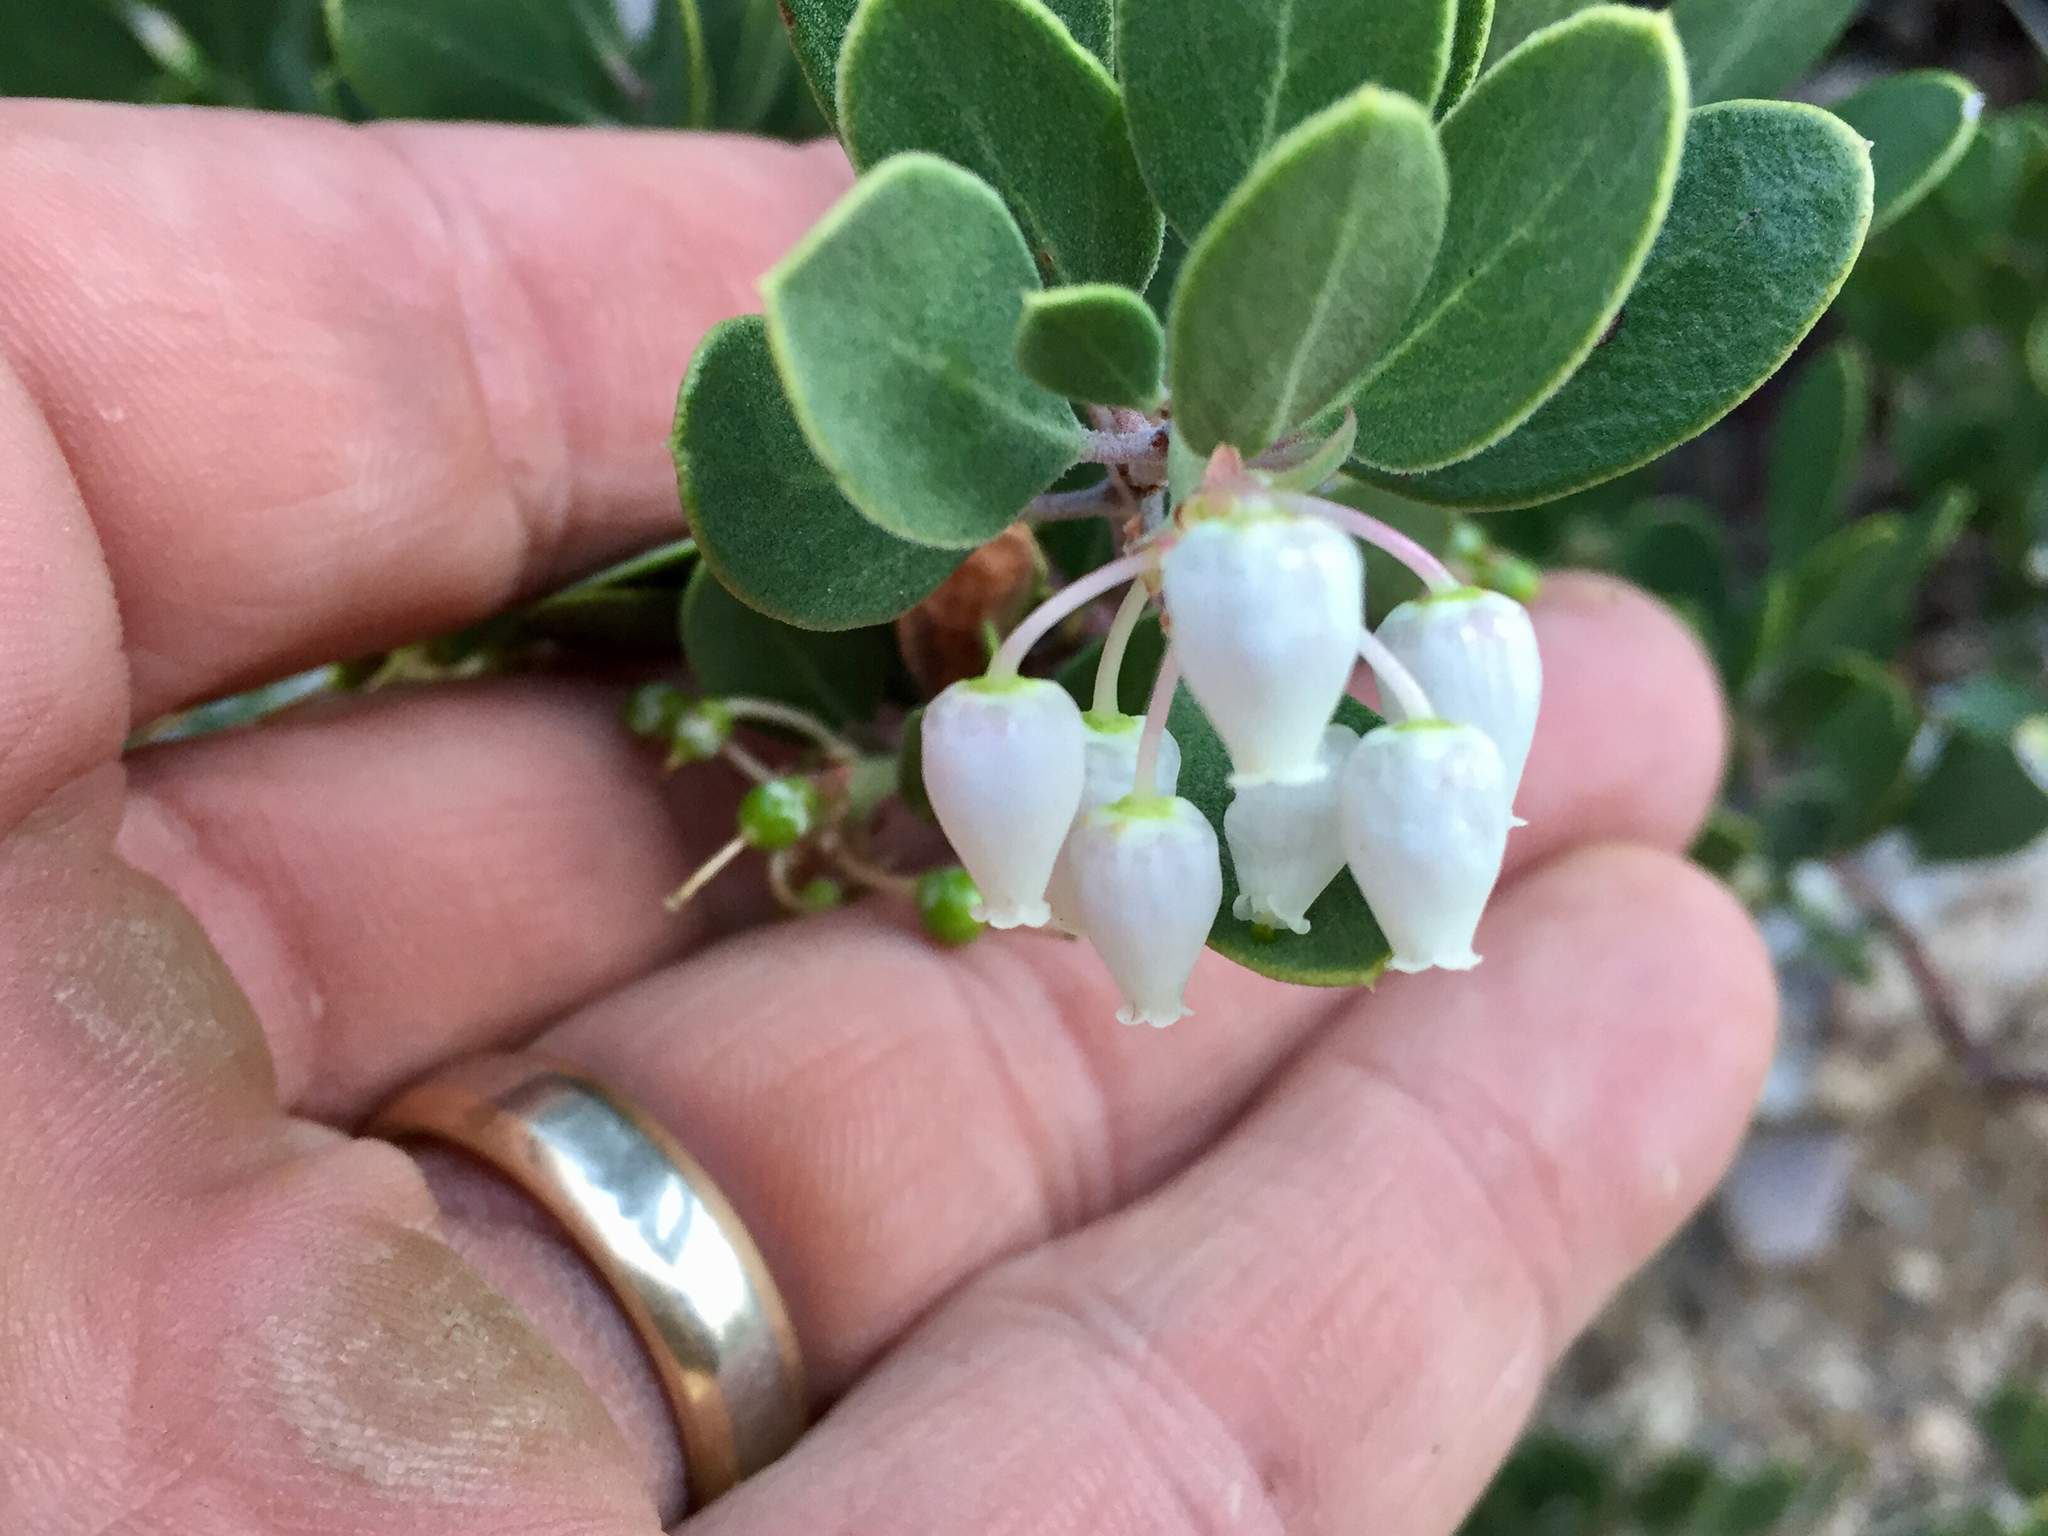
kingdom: Plantae
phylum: Tracheophyta
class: Magnoliopsida
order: Ericales
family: Ericaceae
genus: Arctostaphylos
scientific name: Arctostaphylos pungens
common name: Mexican manzanita
